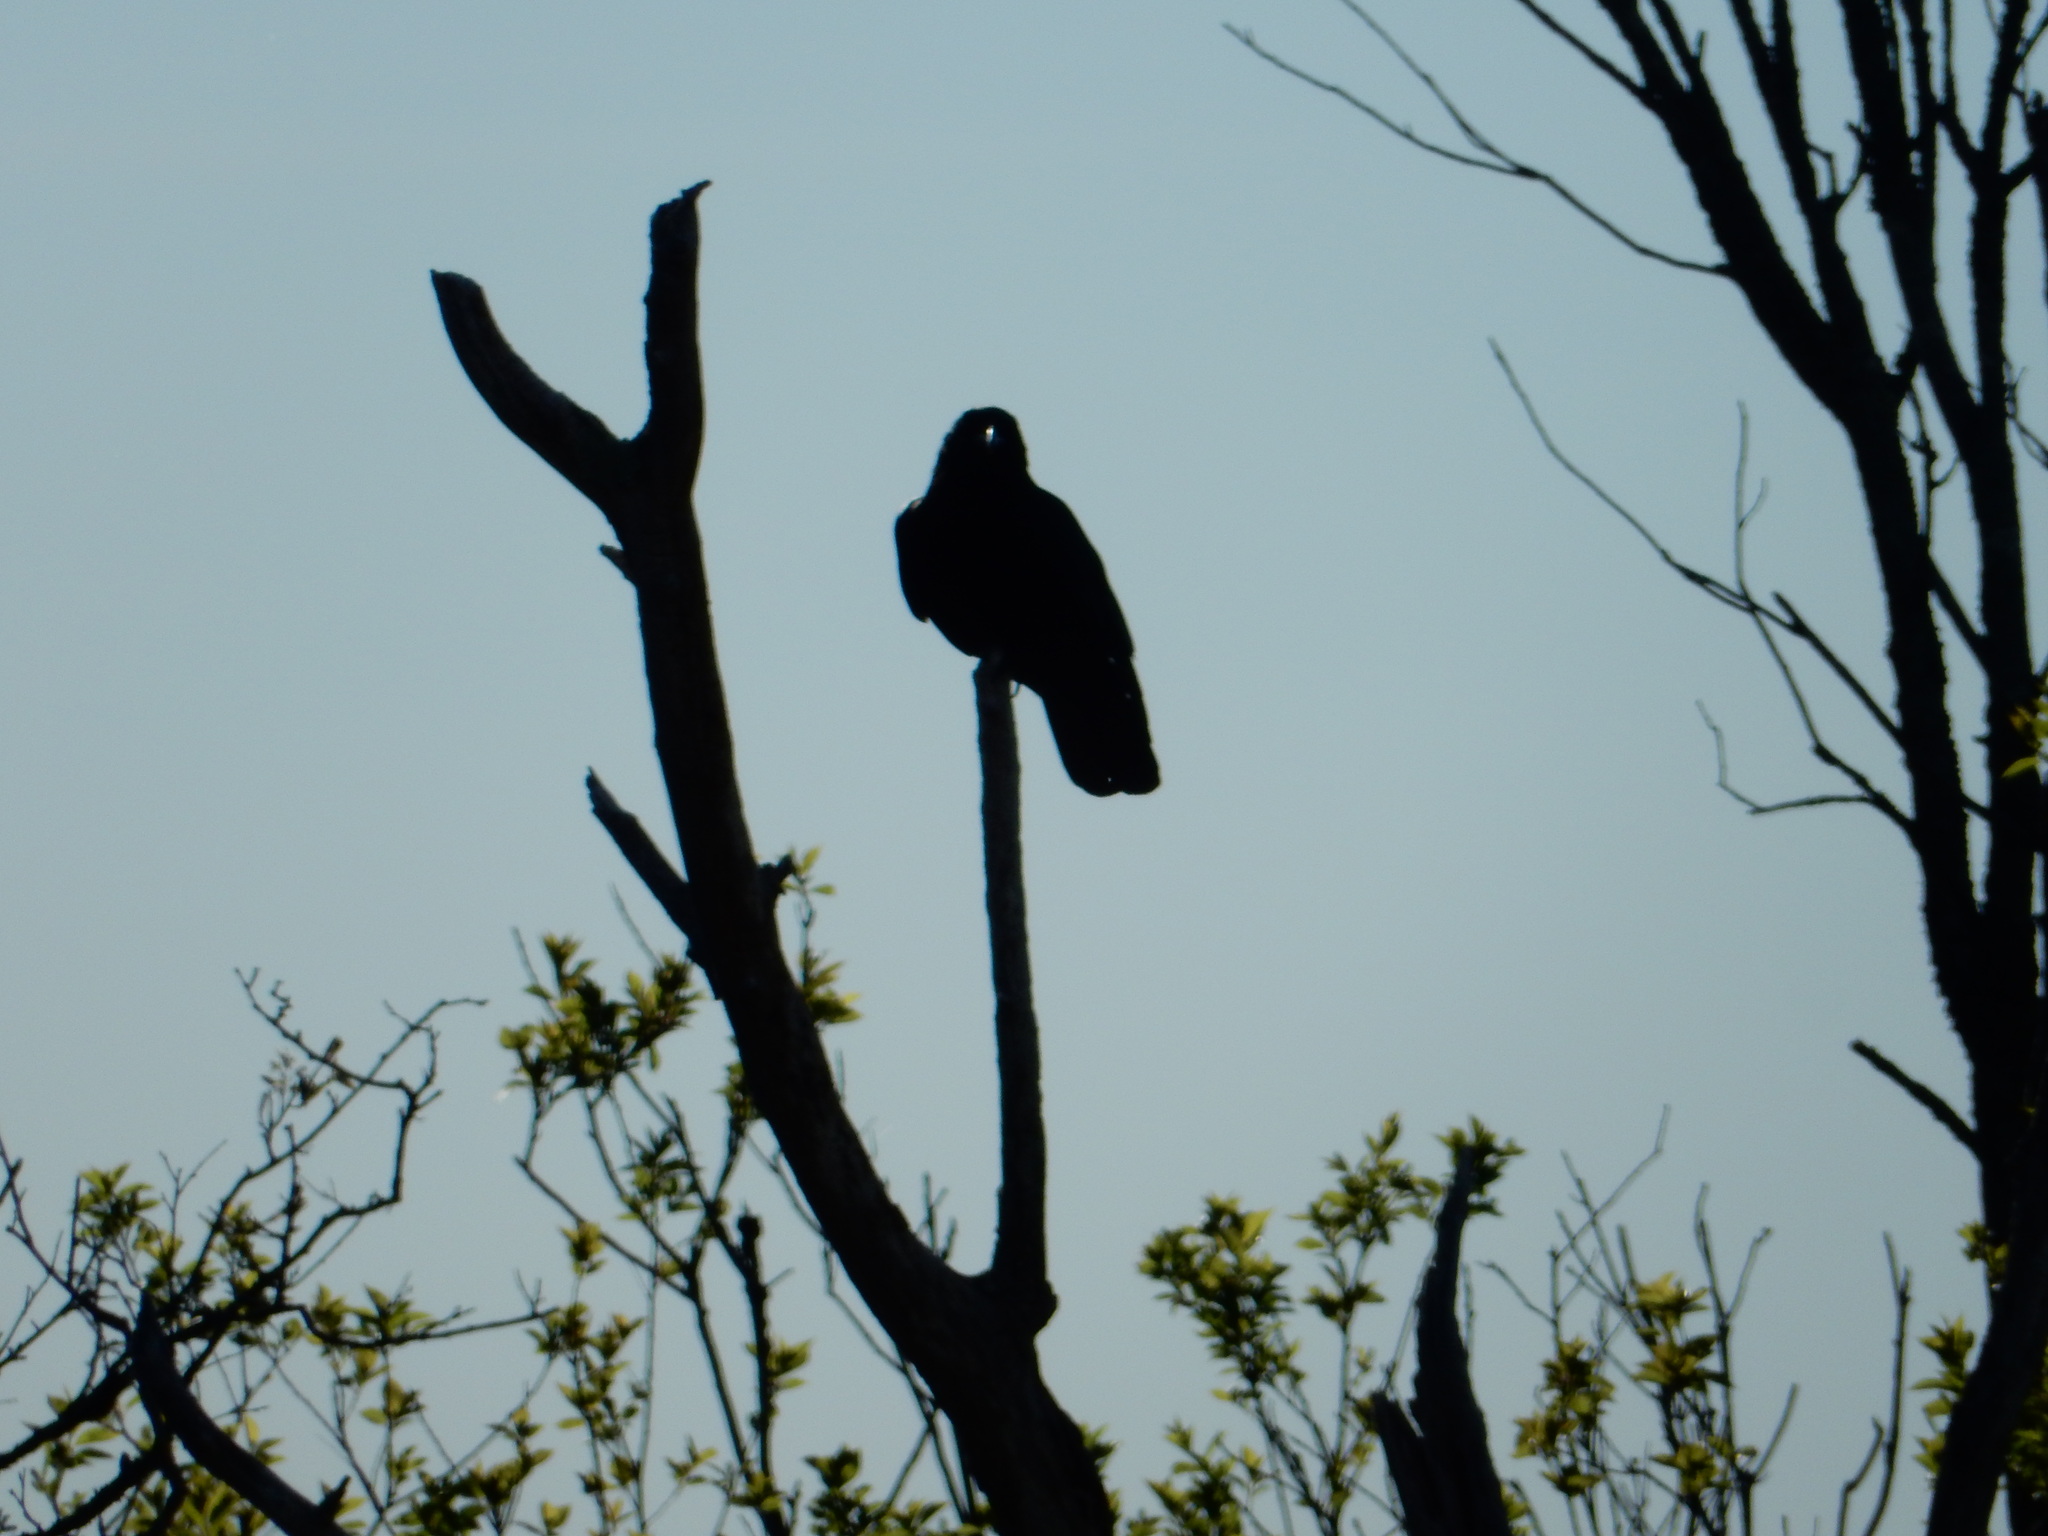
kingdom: Animalia
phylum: Chordata
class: Aves
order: Passeriformes
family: Corvidae
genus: Corvus
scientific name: Corvus brachyrhynchos
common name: American crow
